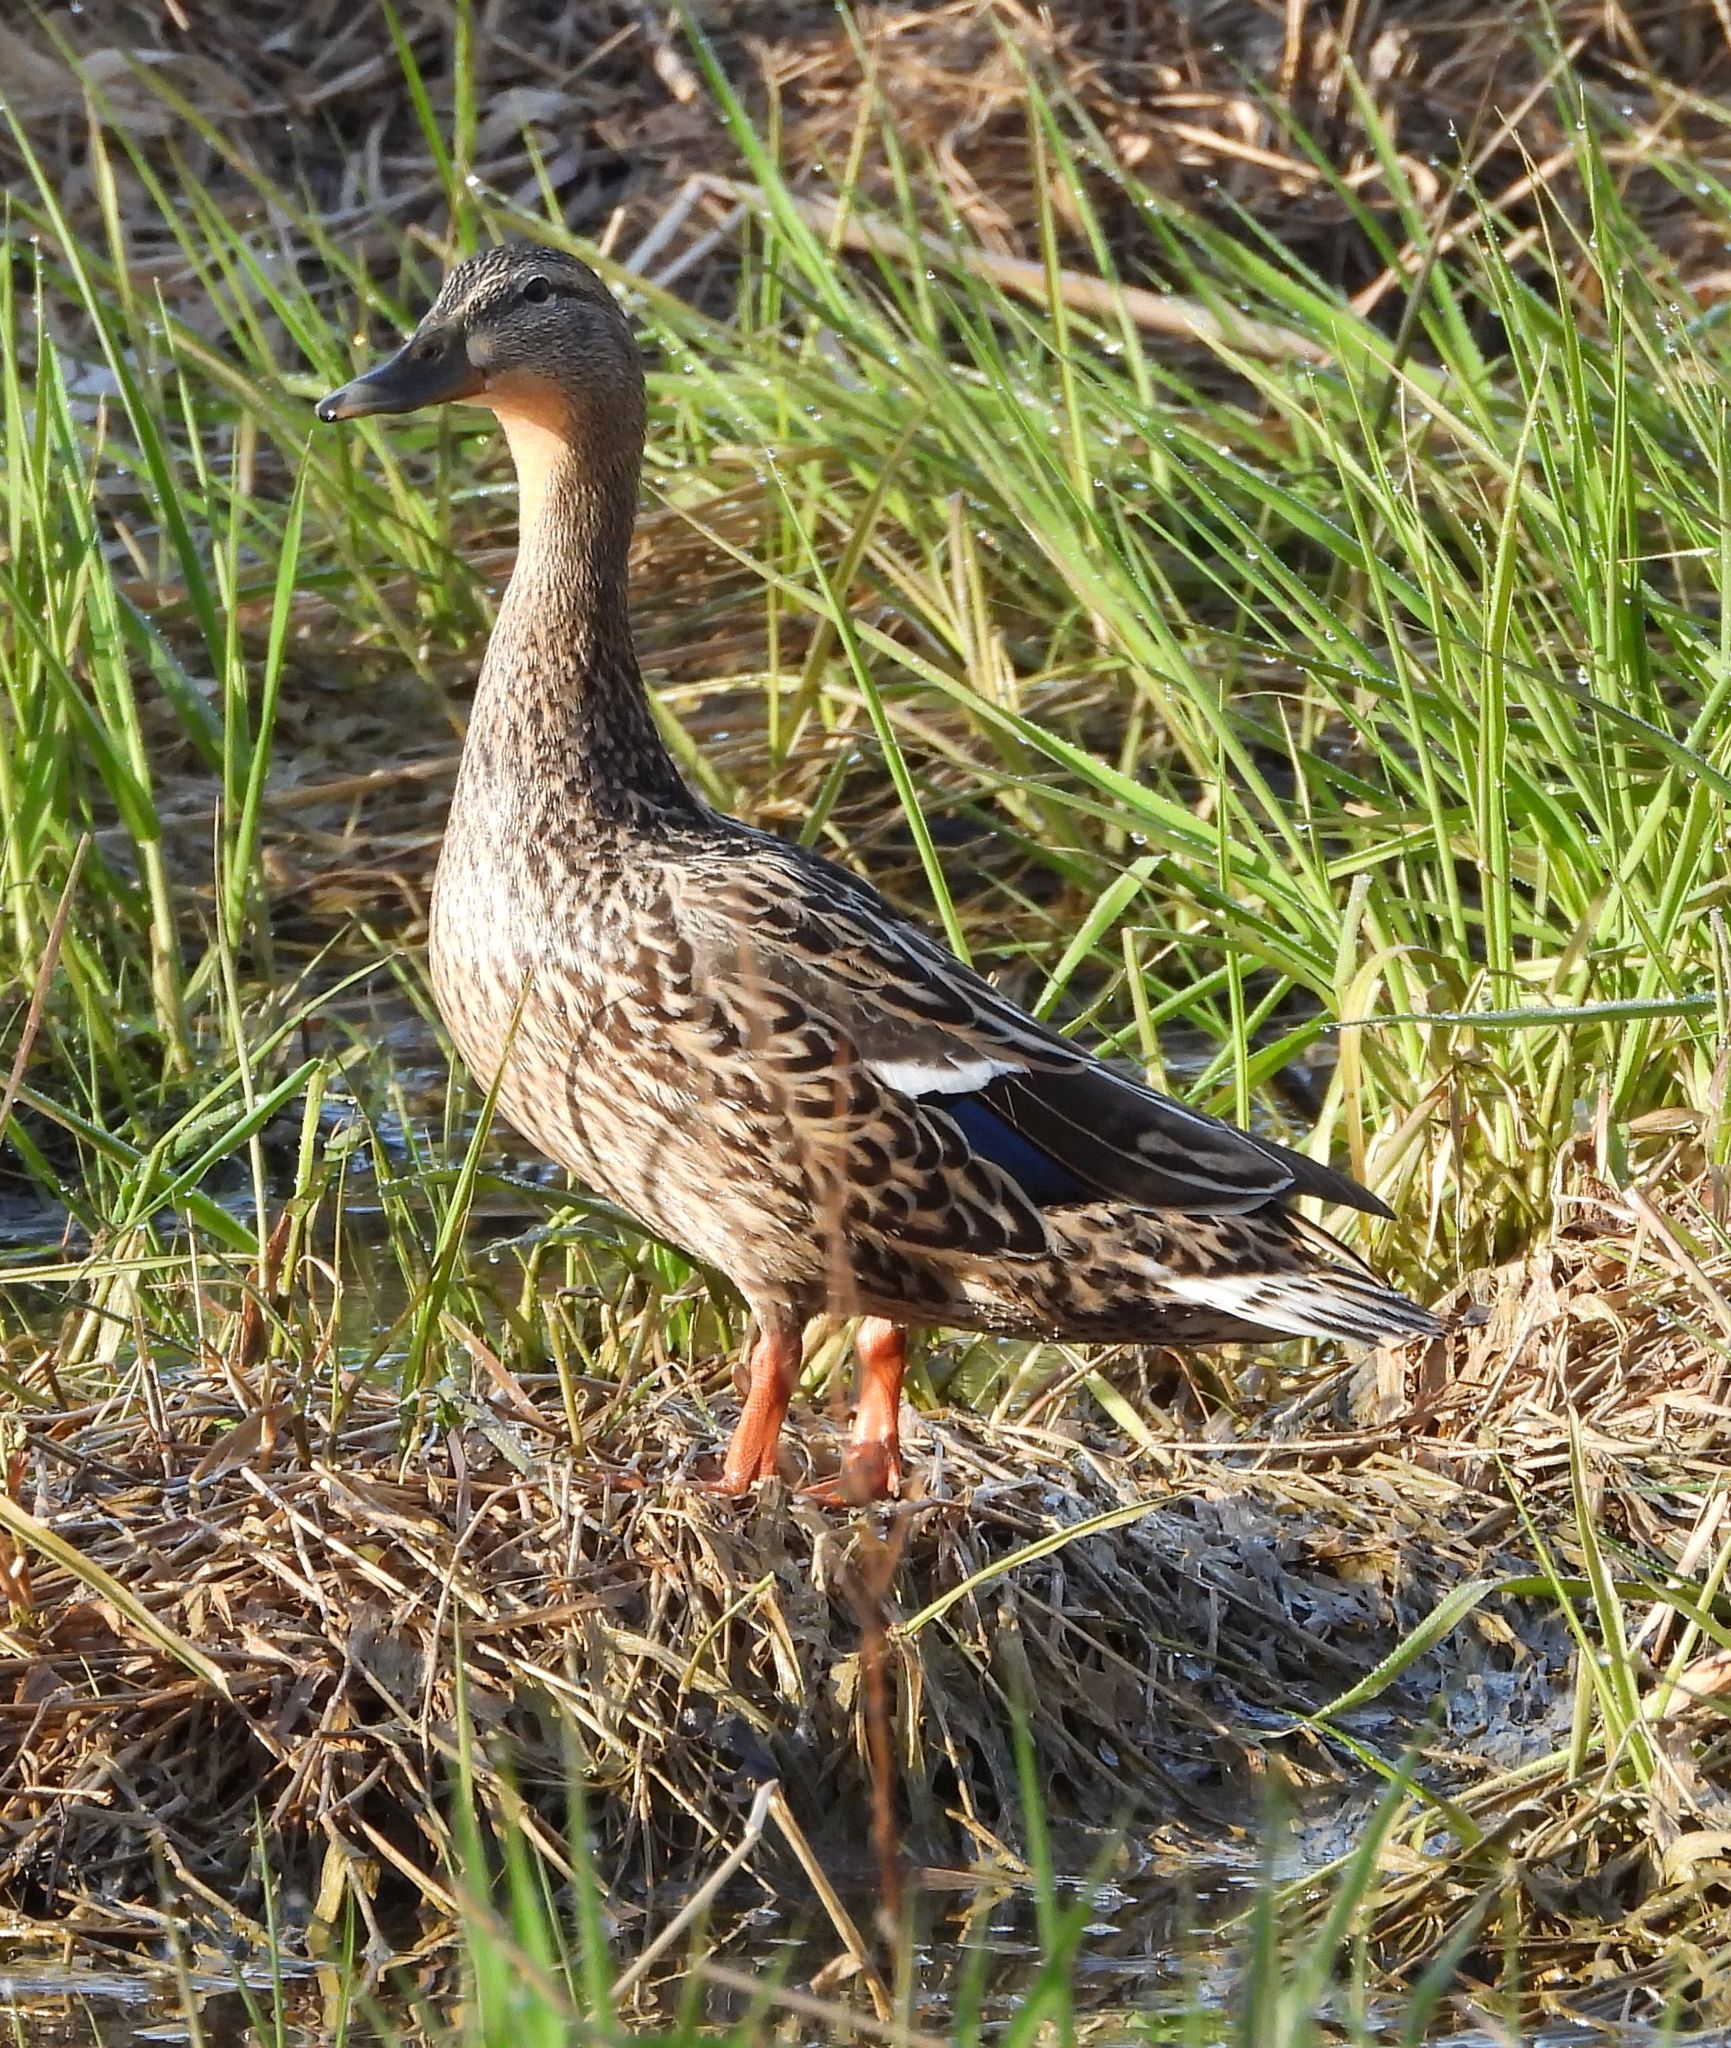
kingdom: Animalia
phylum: Chordata
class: Aves
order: Anseriformes
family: Anatidae
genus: Anas
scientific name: Anas platyrhynchos
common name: Mallard
